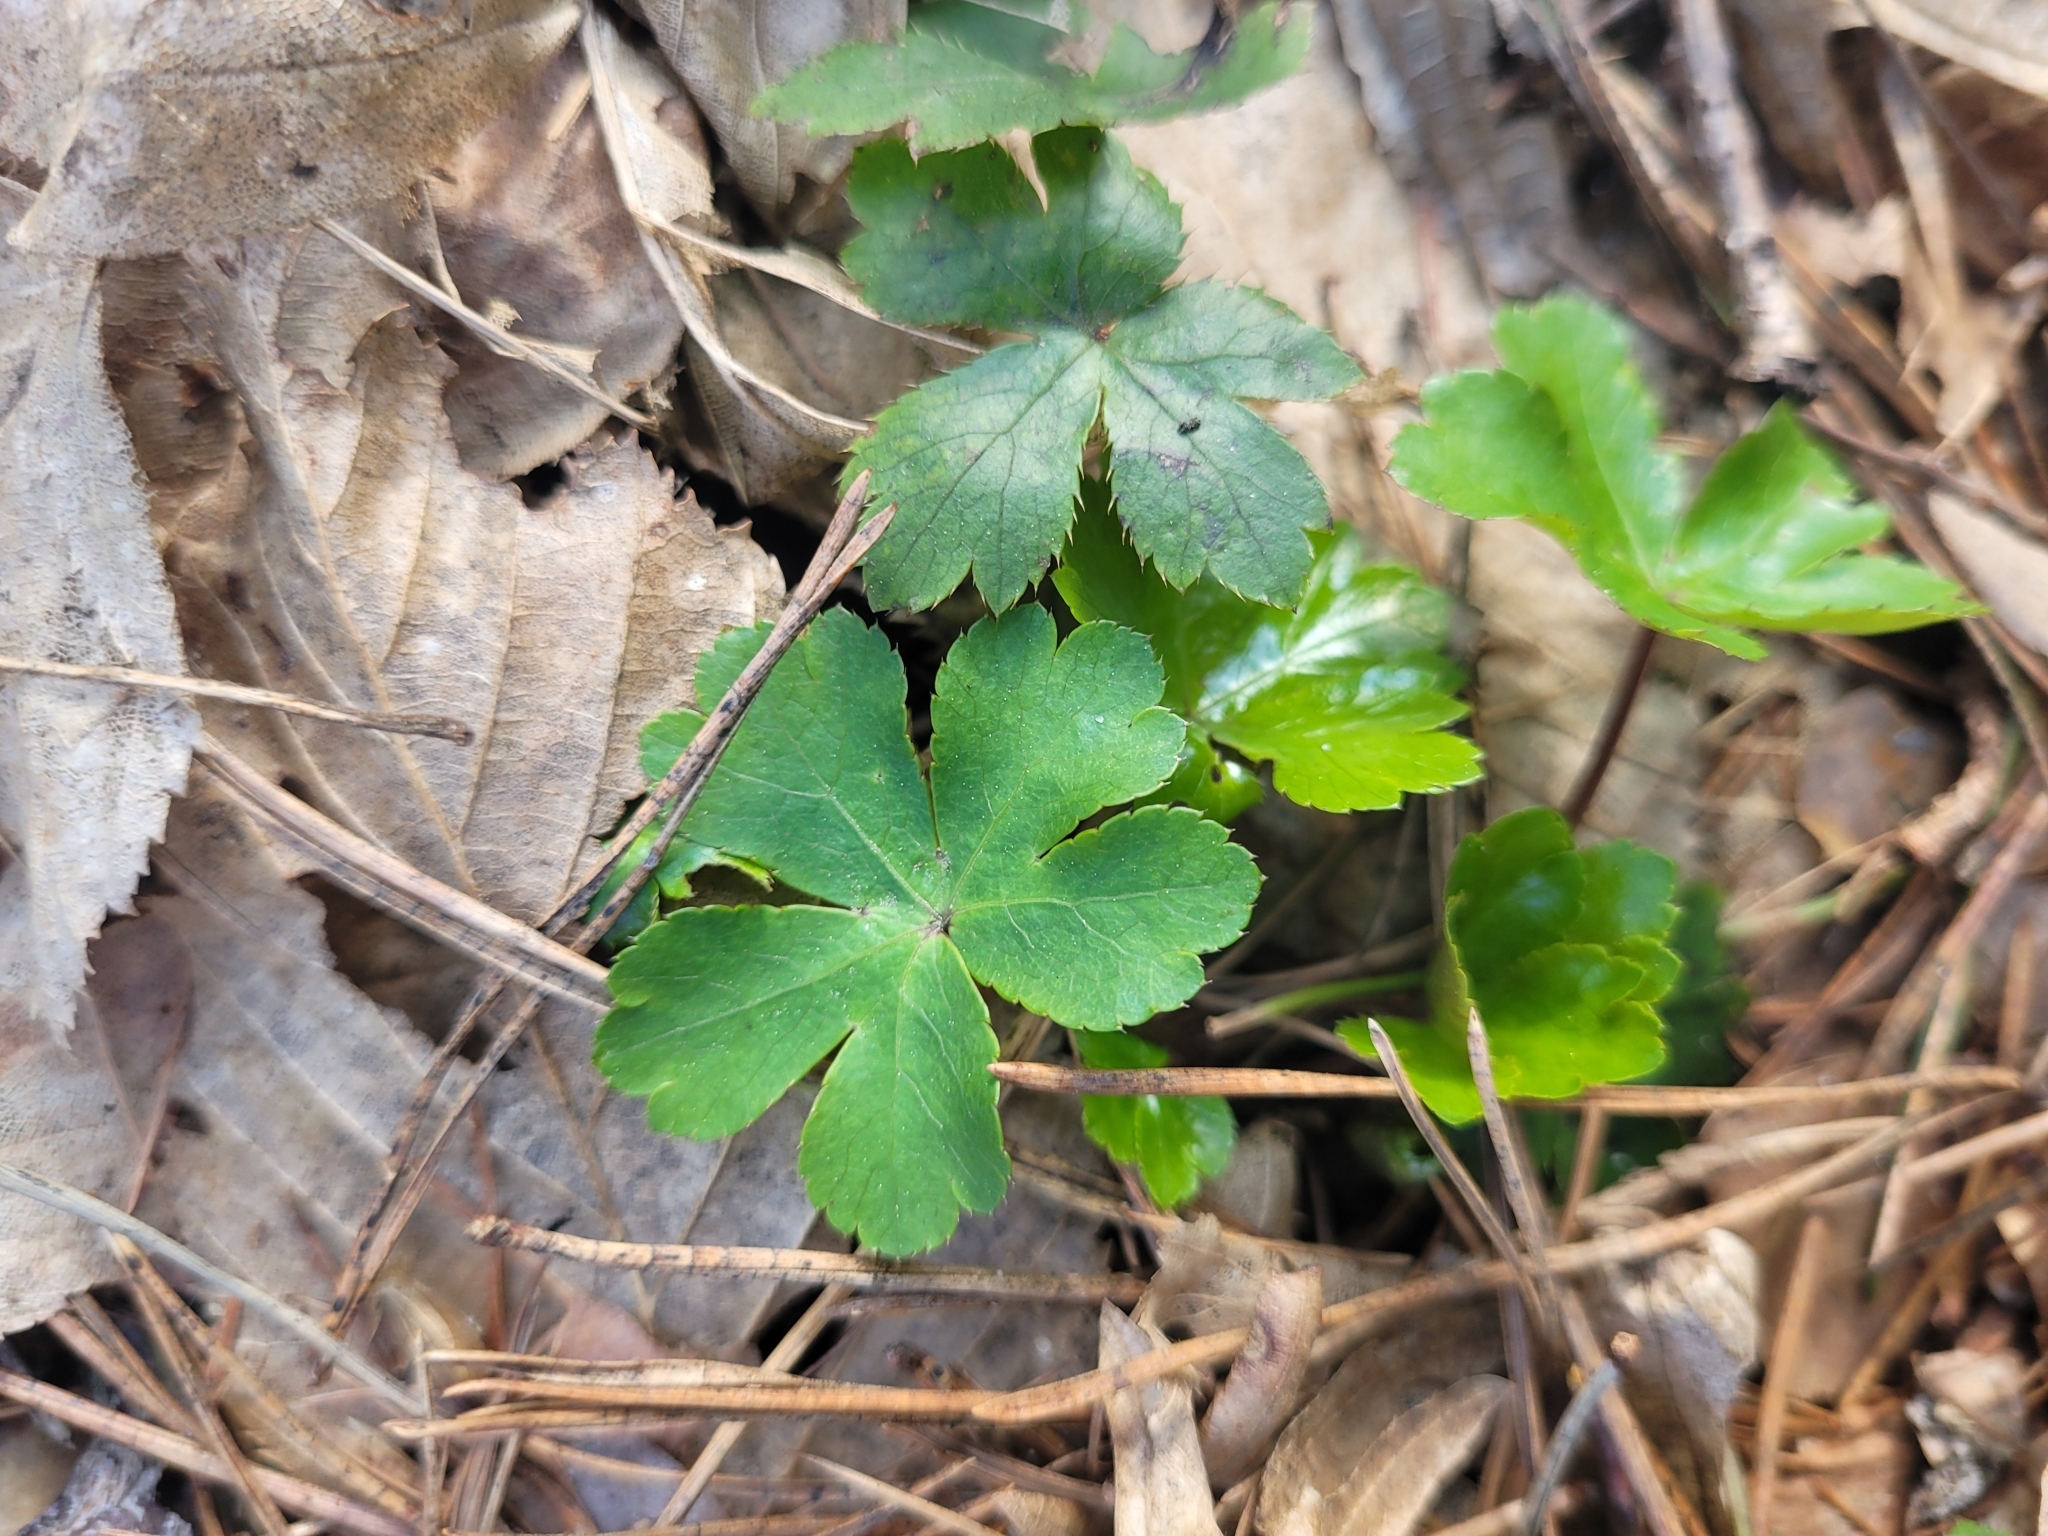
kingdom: Plantae
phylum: Tracheophyta
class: Magnoliopsida
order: Apiales
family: Apiaceae
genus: Sanicula
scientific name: Sanicula europaea
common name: Sanicle
